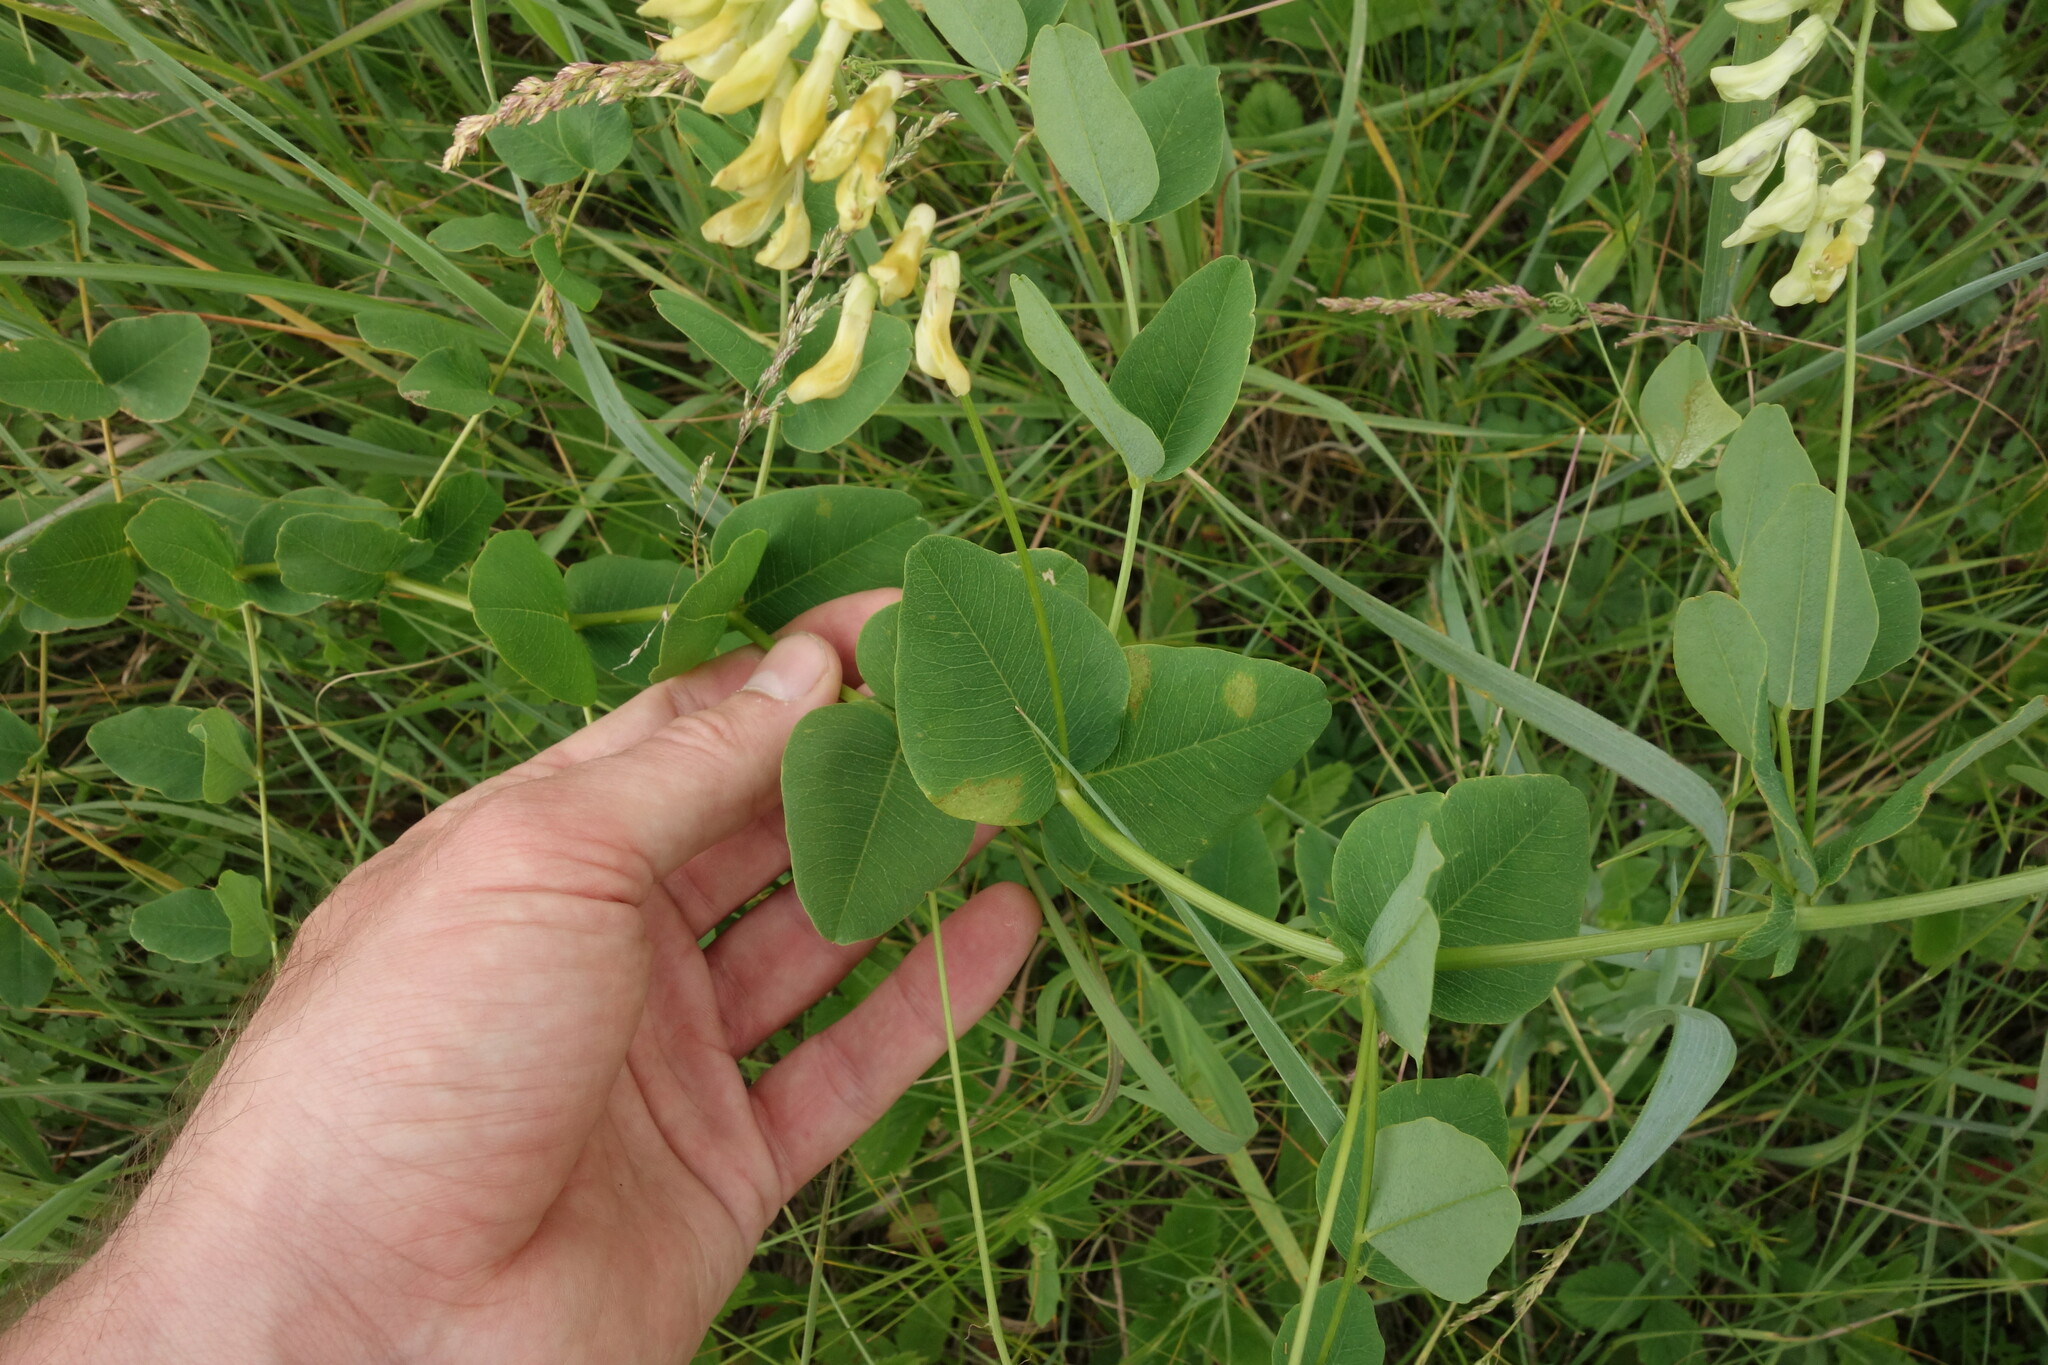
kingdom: Plantae
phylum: Tracheophyta
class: Magnoliopsida
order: Fabales
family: Fabaceae
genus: Vicia
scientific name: Vicia pisiformis
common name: Pale-flower vetch
